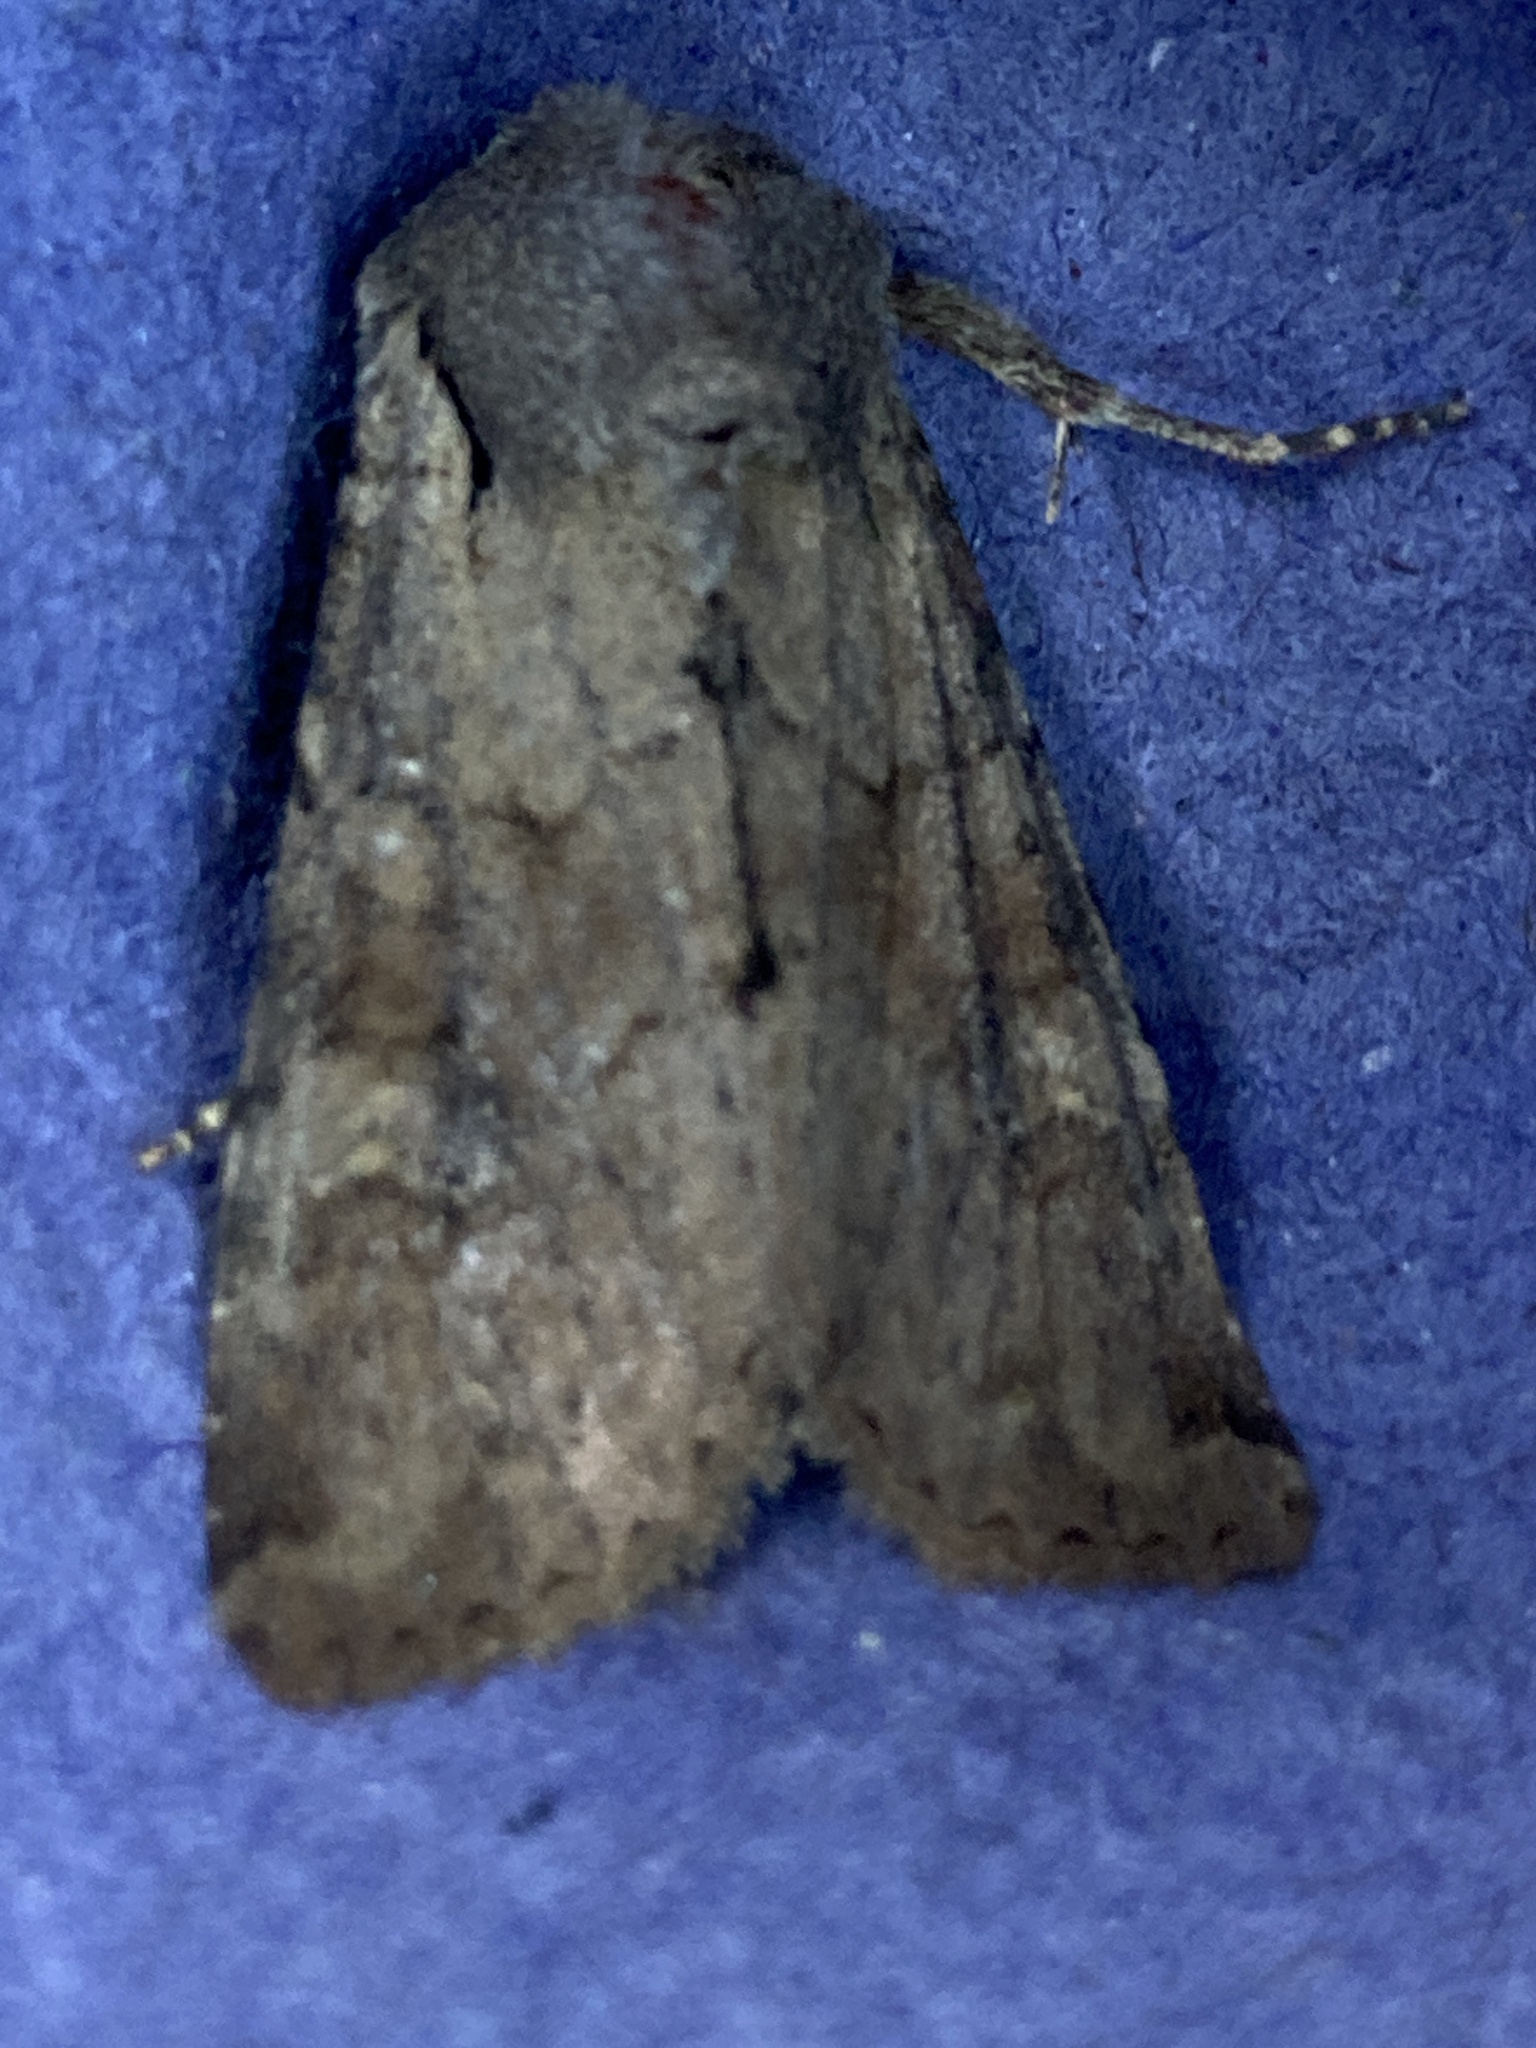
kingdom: Animalia
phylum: Arthropoda
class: Insecta
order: Lepidoptera
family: Noctuidae
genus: Apamea
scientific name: Apamea sordens
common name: Rustic shoulder-knot
